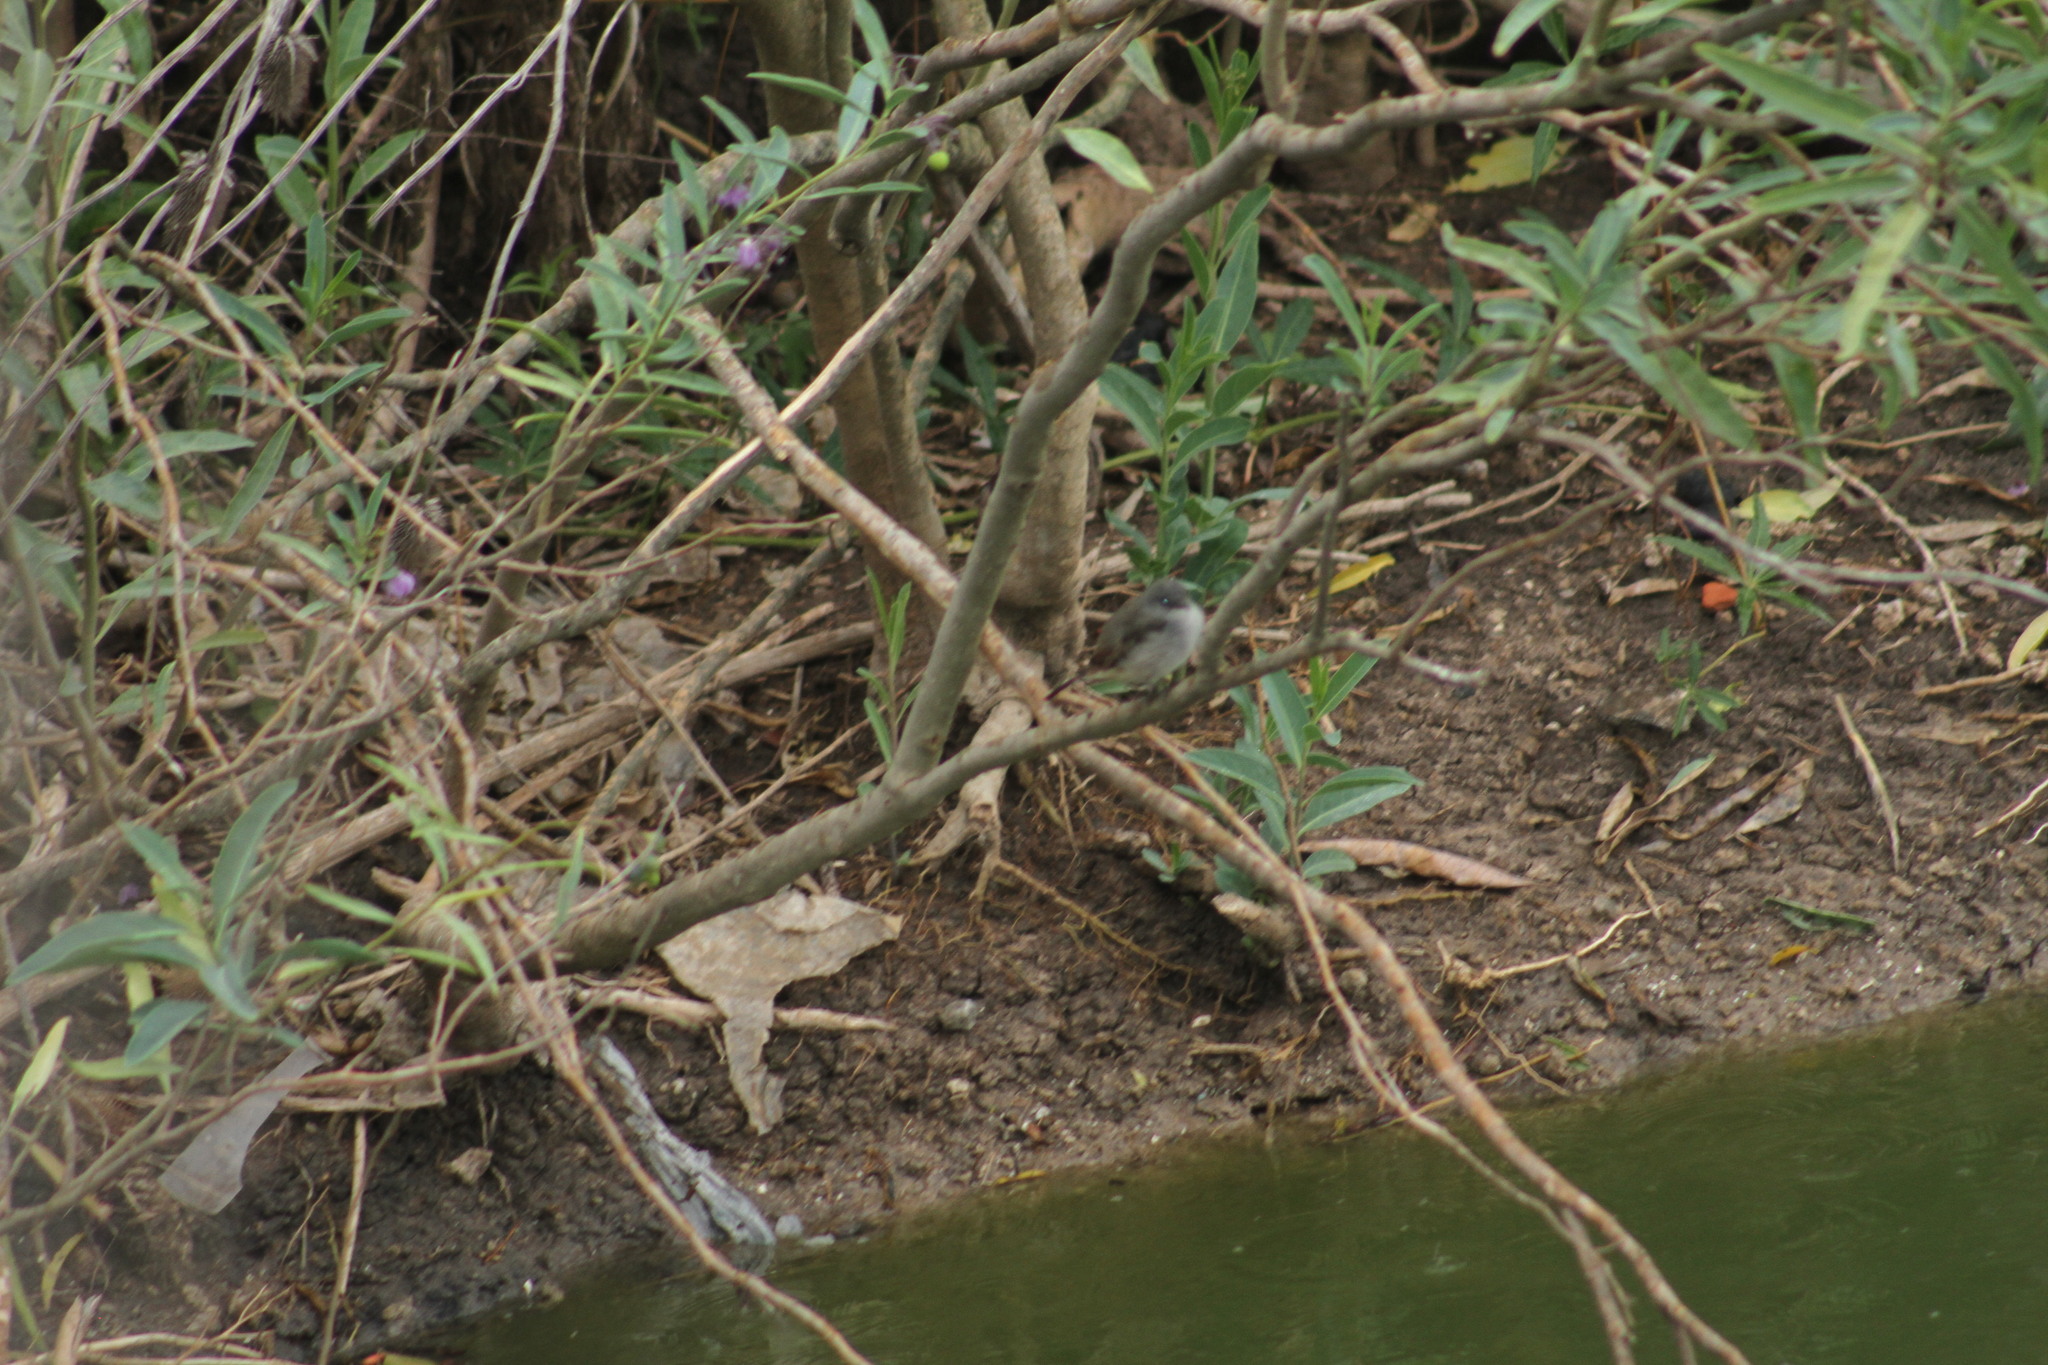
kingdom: Animalia
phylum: Chordata
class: Aves
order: Passeriformes
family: Tyrannidae
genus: Serpophaga
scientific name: Serpophaga nigricans
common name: Sooty tyrannulet
